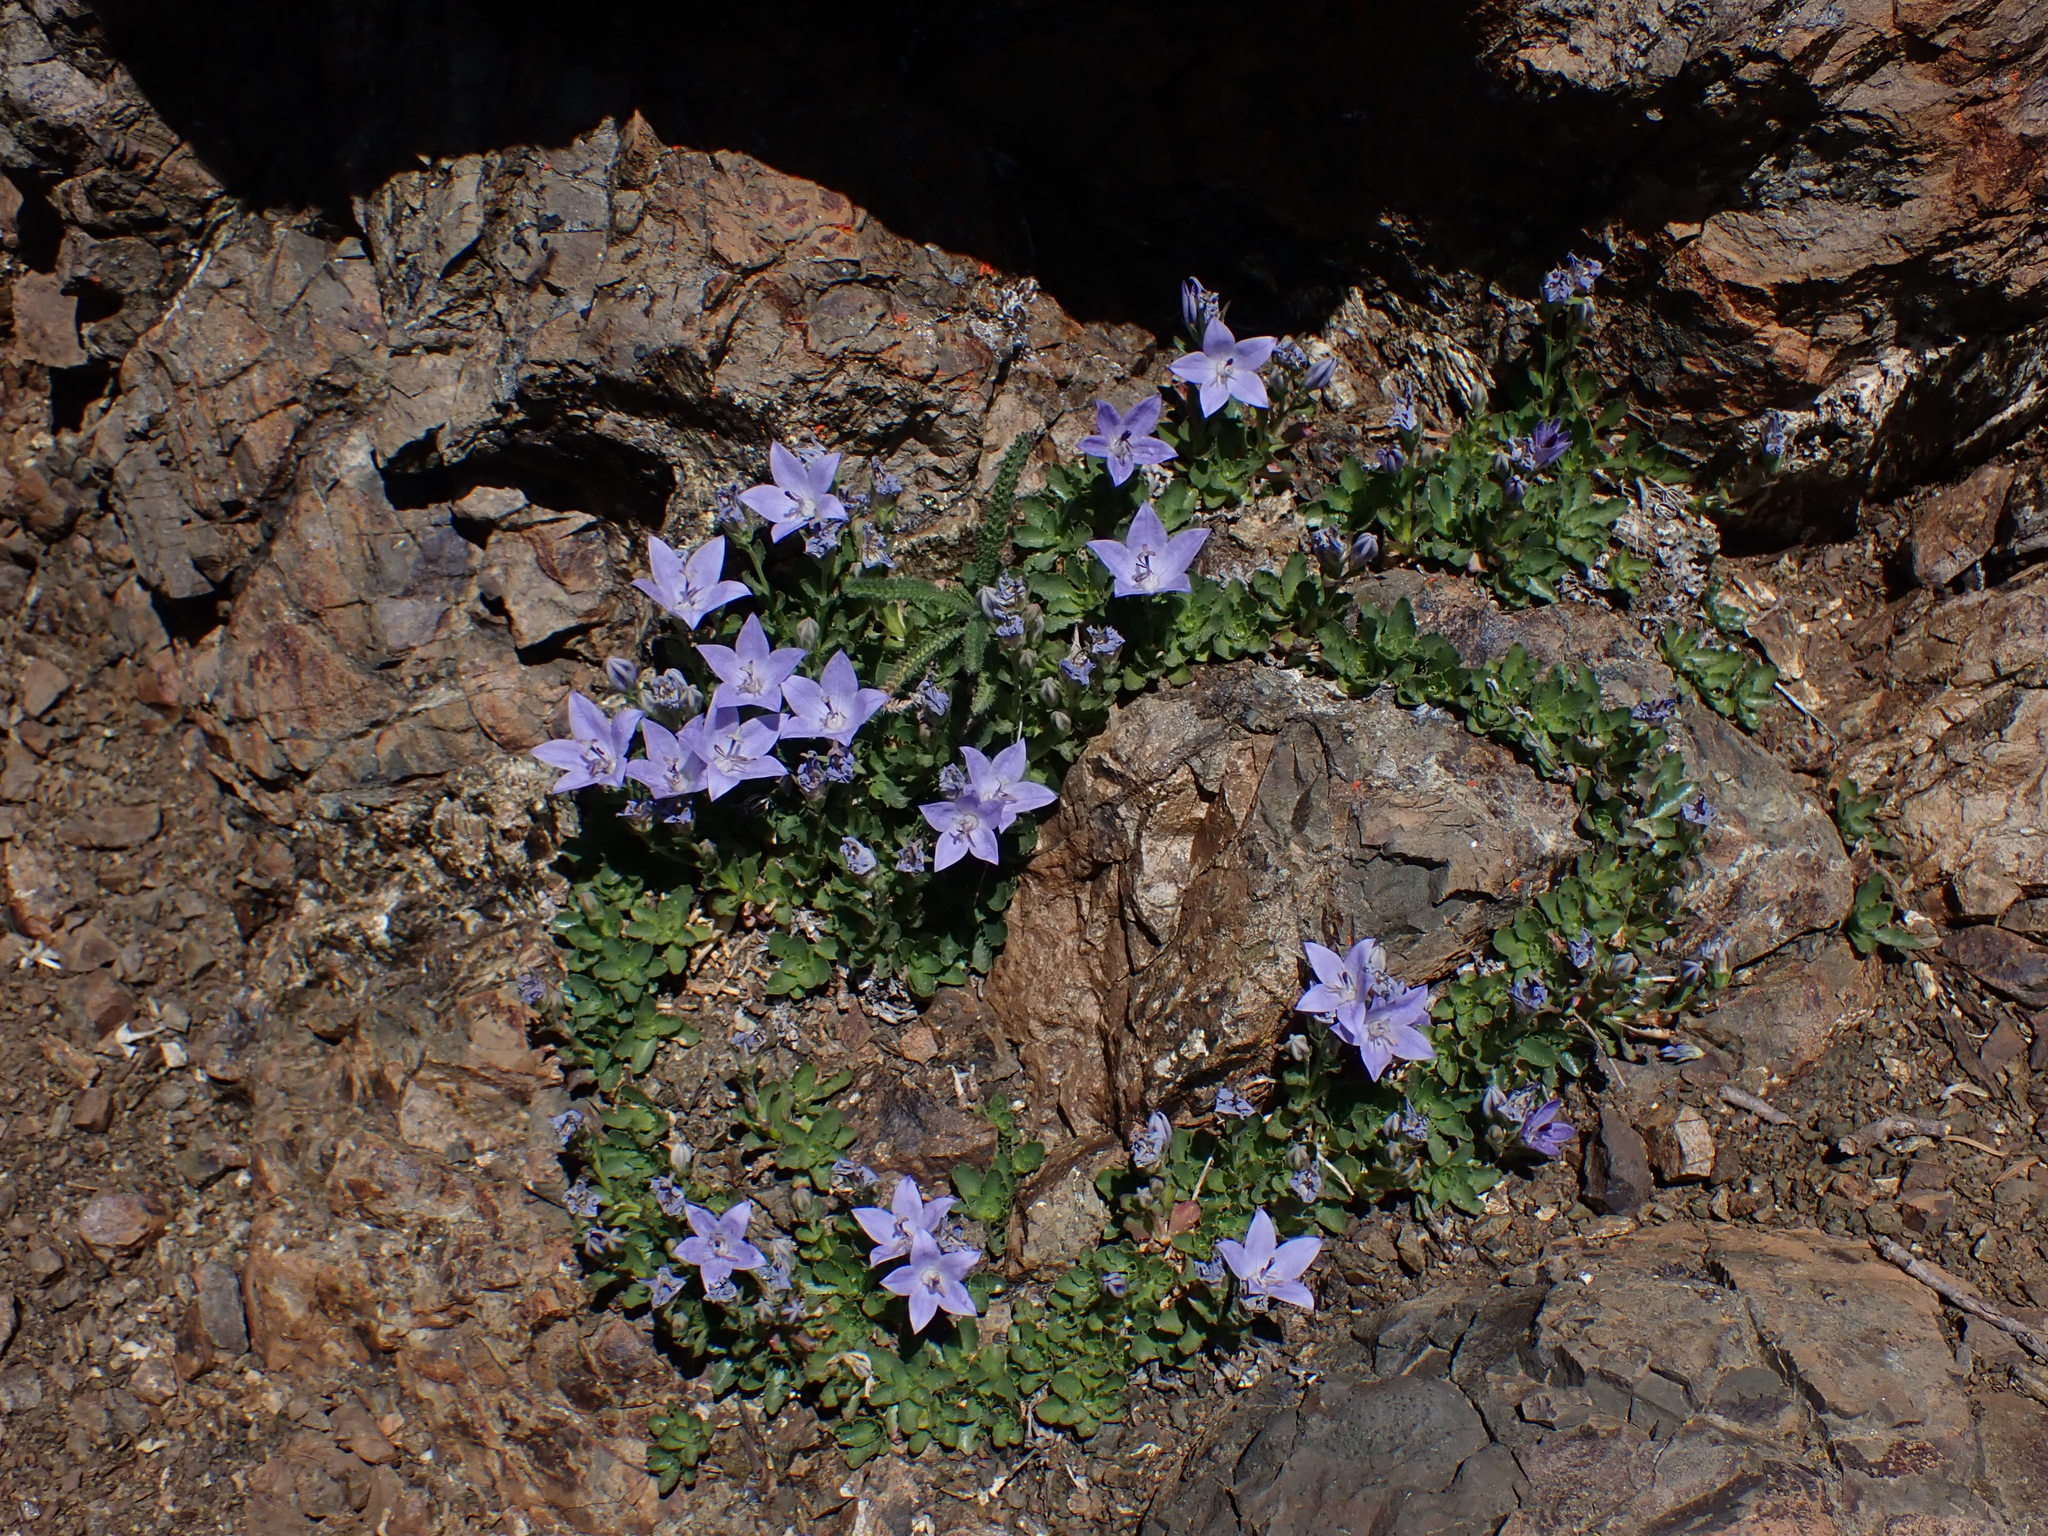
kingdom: Plantae
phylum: Tracheophyta
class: Magnoliopsida
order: Asterales
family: Campanulaceae
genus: Campanula
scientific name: Campanula piperi
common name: Olympic bellflower
